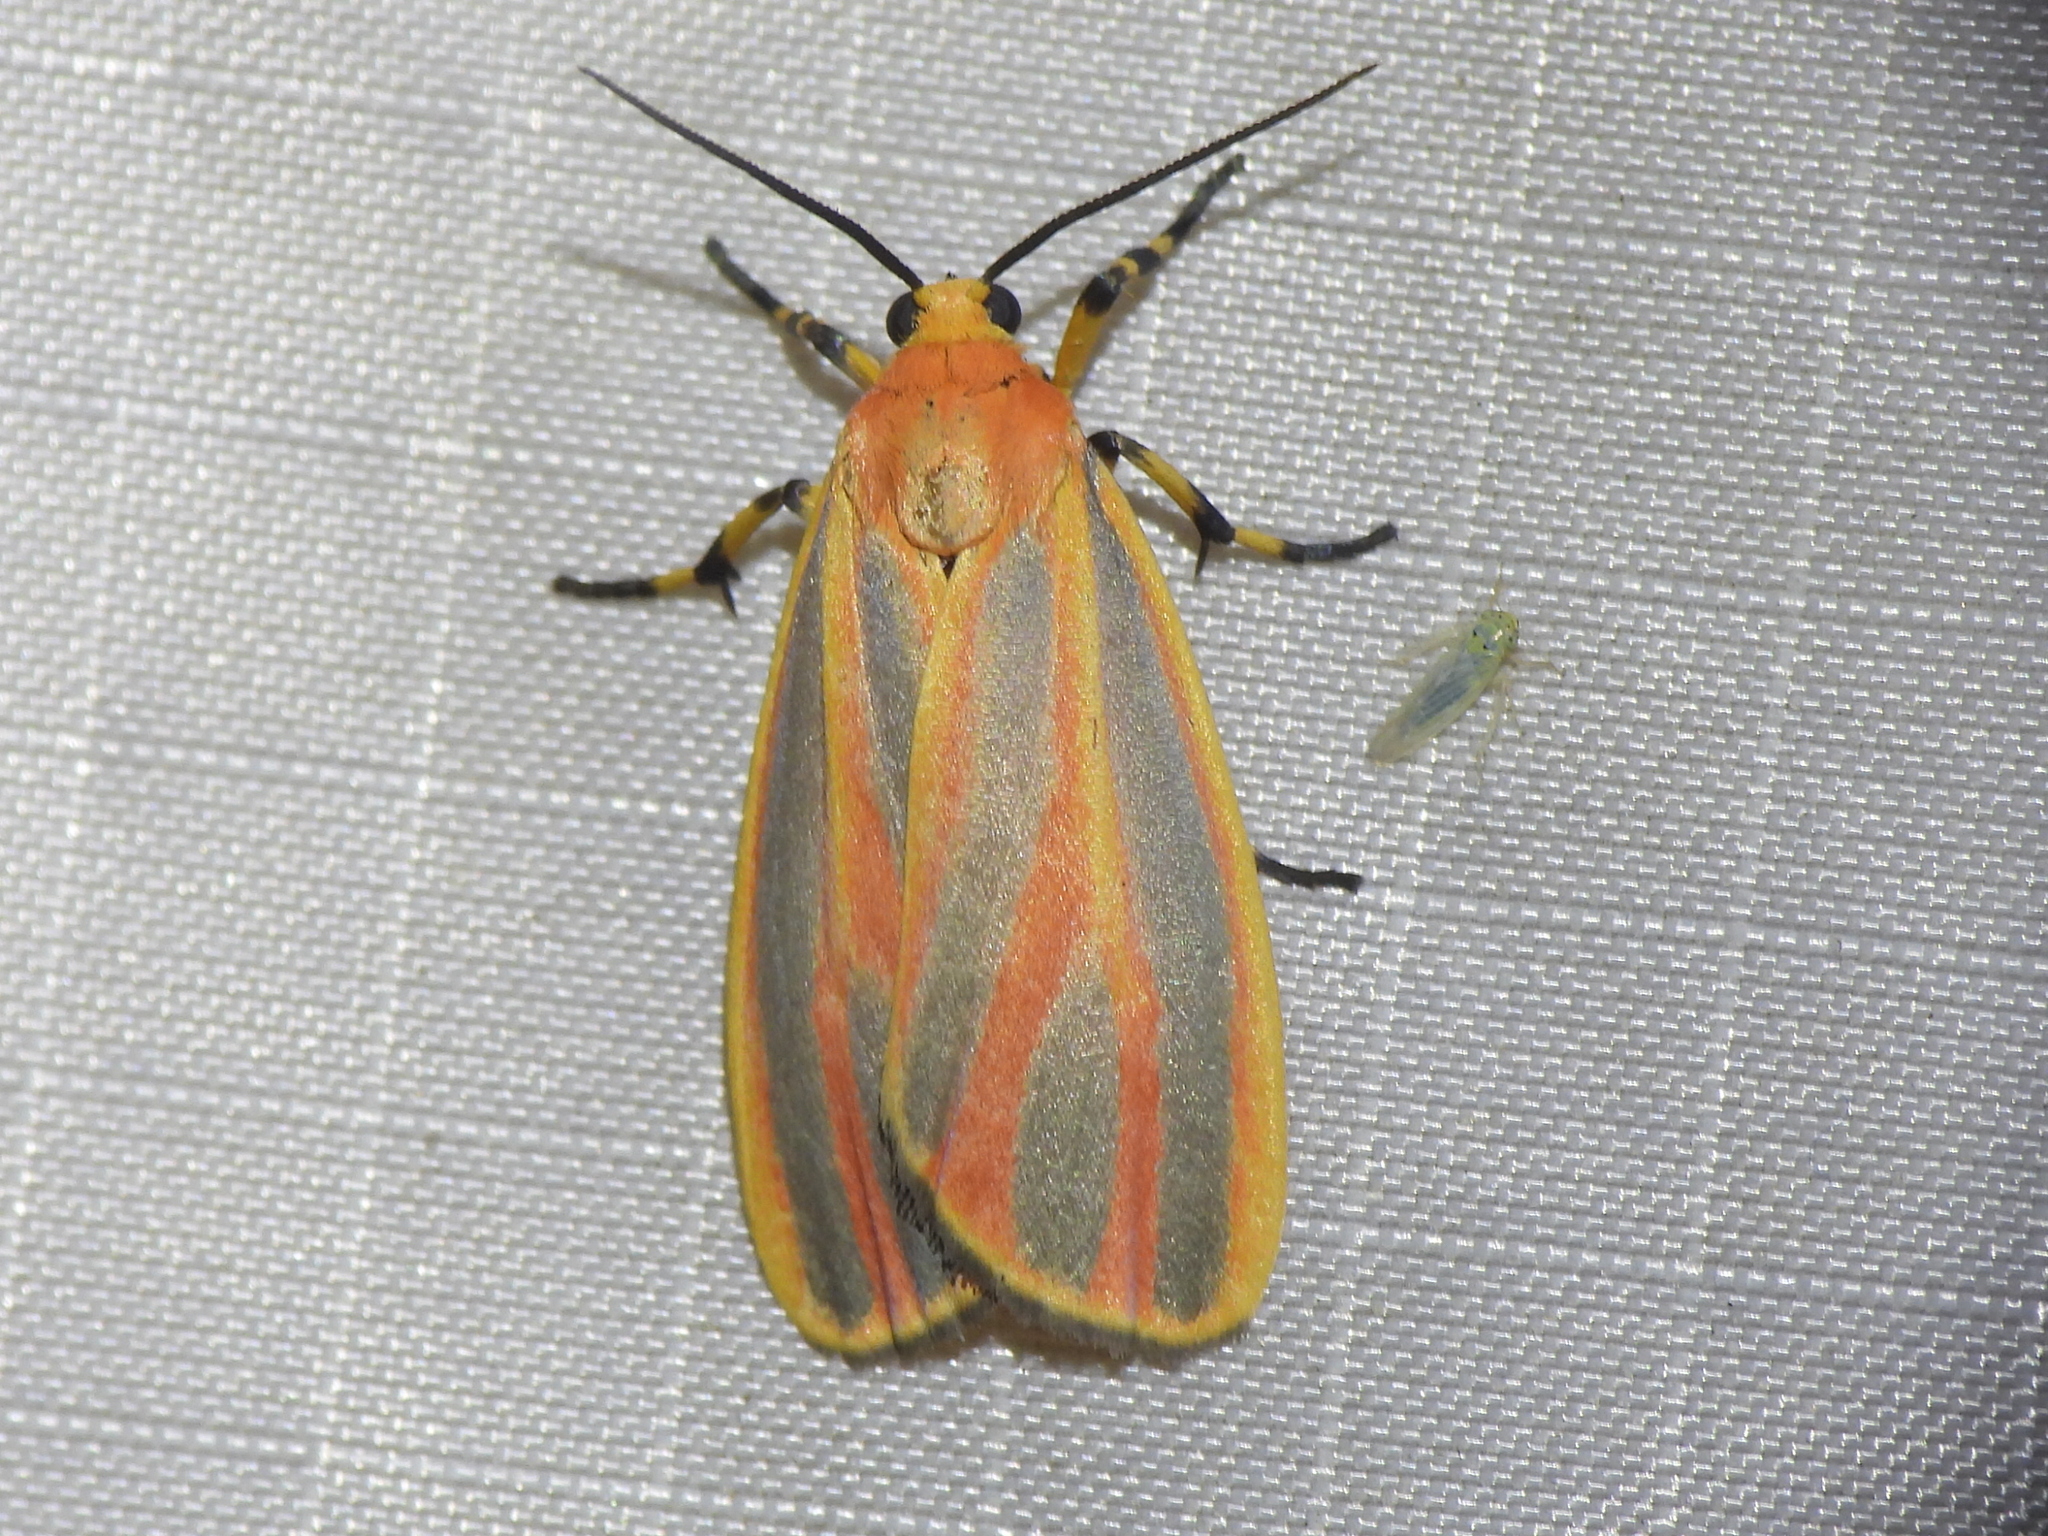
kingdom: Animalia
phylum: Arthropoda
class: Insecta
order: Lepidoptera
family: Erebidae
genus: Hypoprepia
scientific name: Hypoprepia miniata
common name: Scarlet-winged lichen moth
